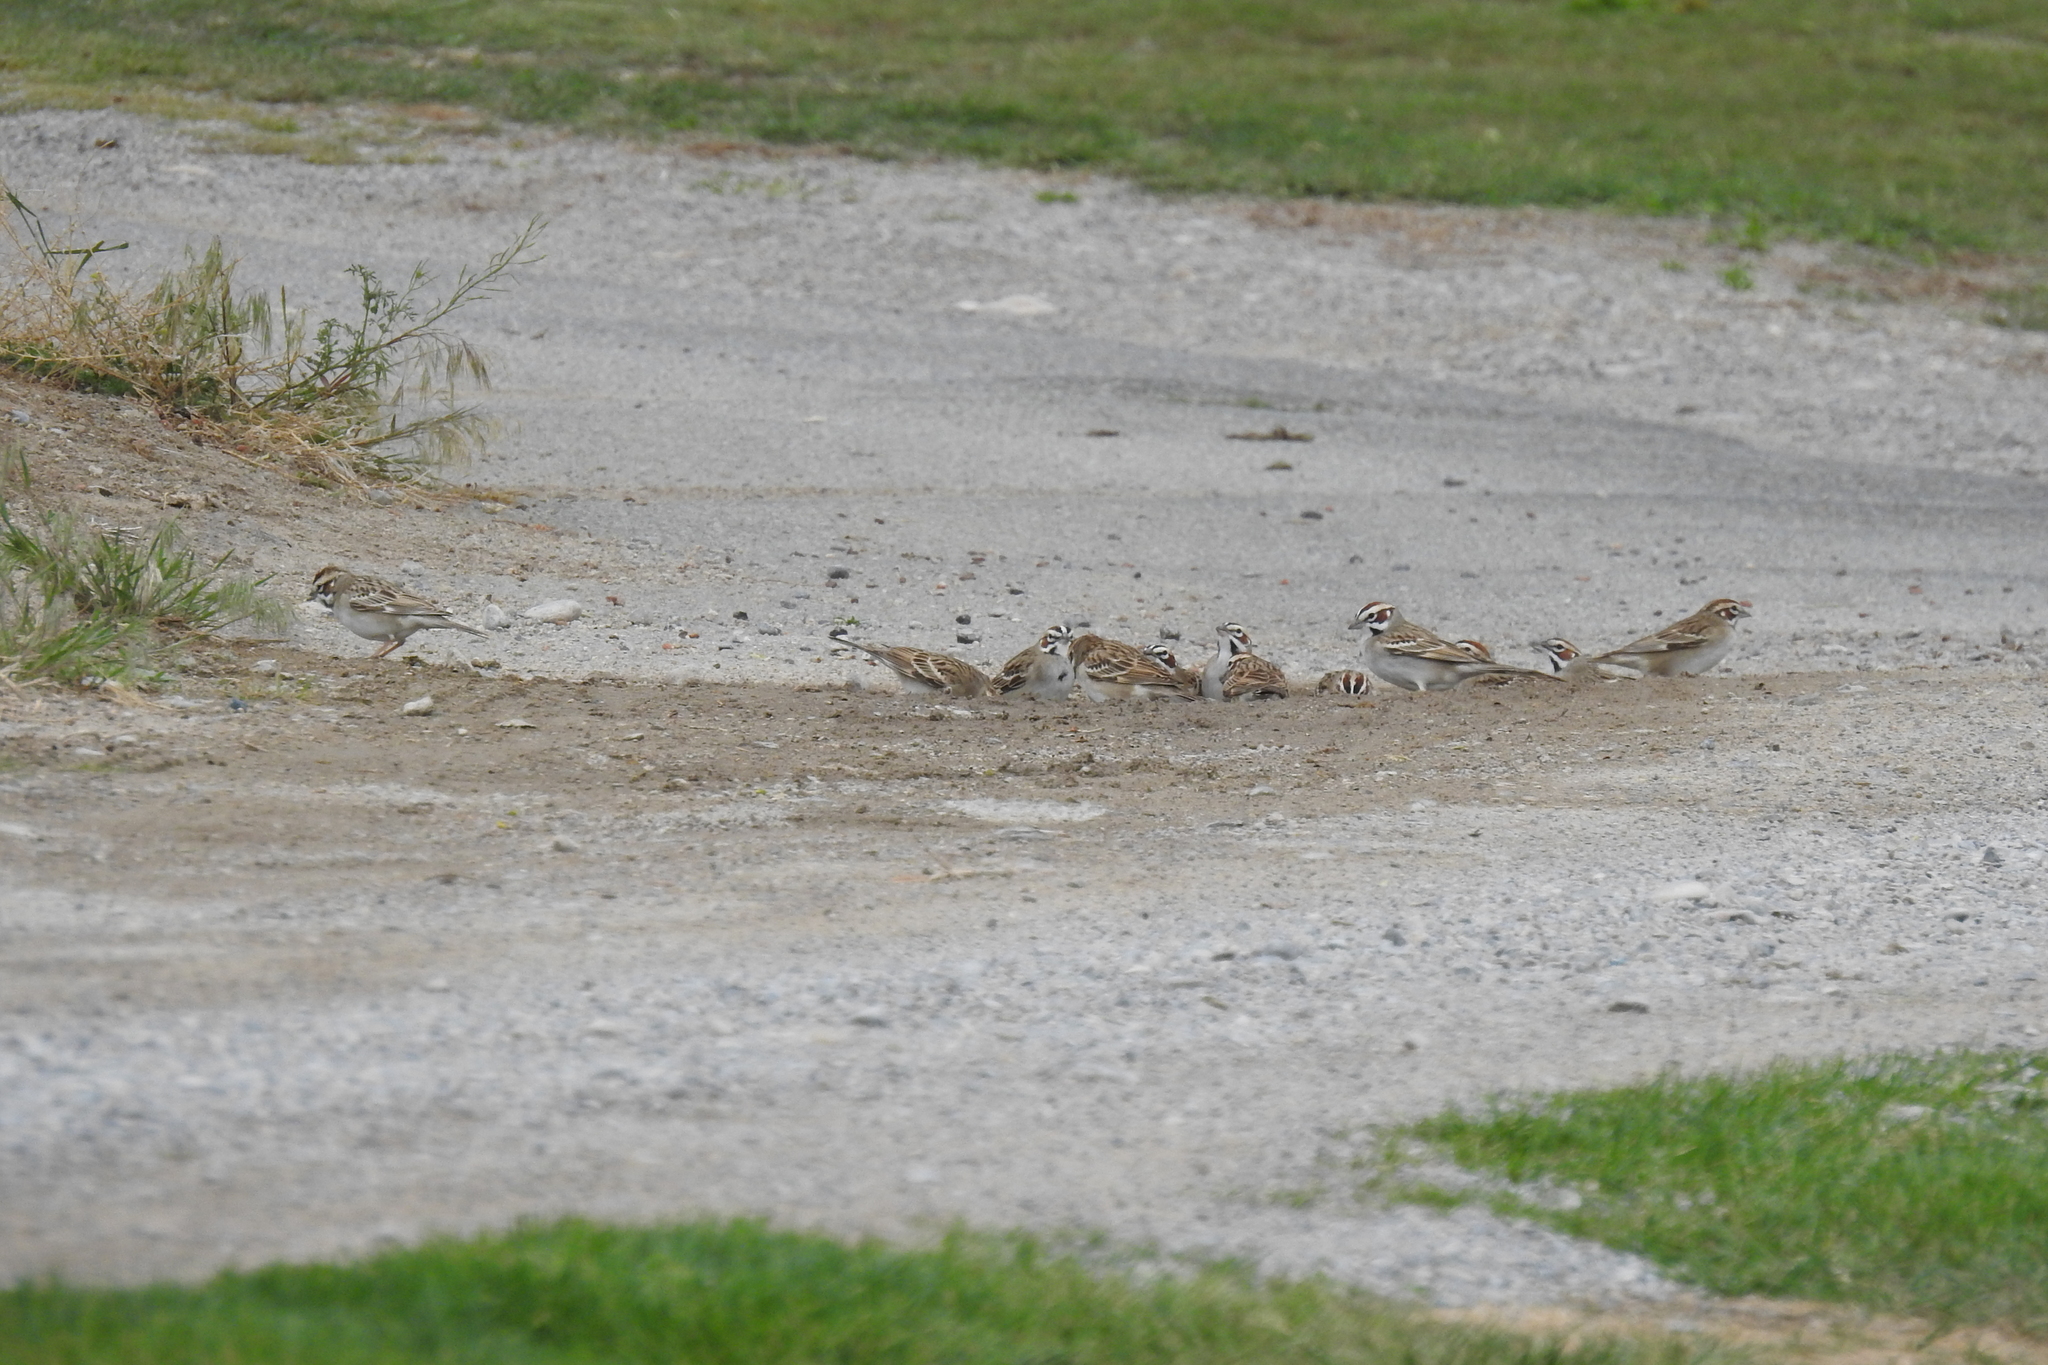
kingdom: Animalia
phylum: Chordata
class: Aves
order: Passeriformes
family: Passerellidae
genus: Chondestes
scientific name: Chondestes grammacus
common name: Lark sparrow
